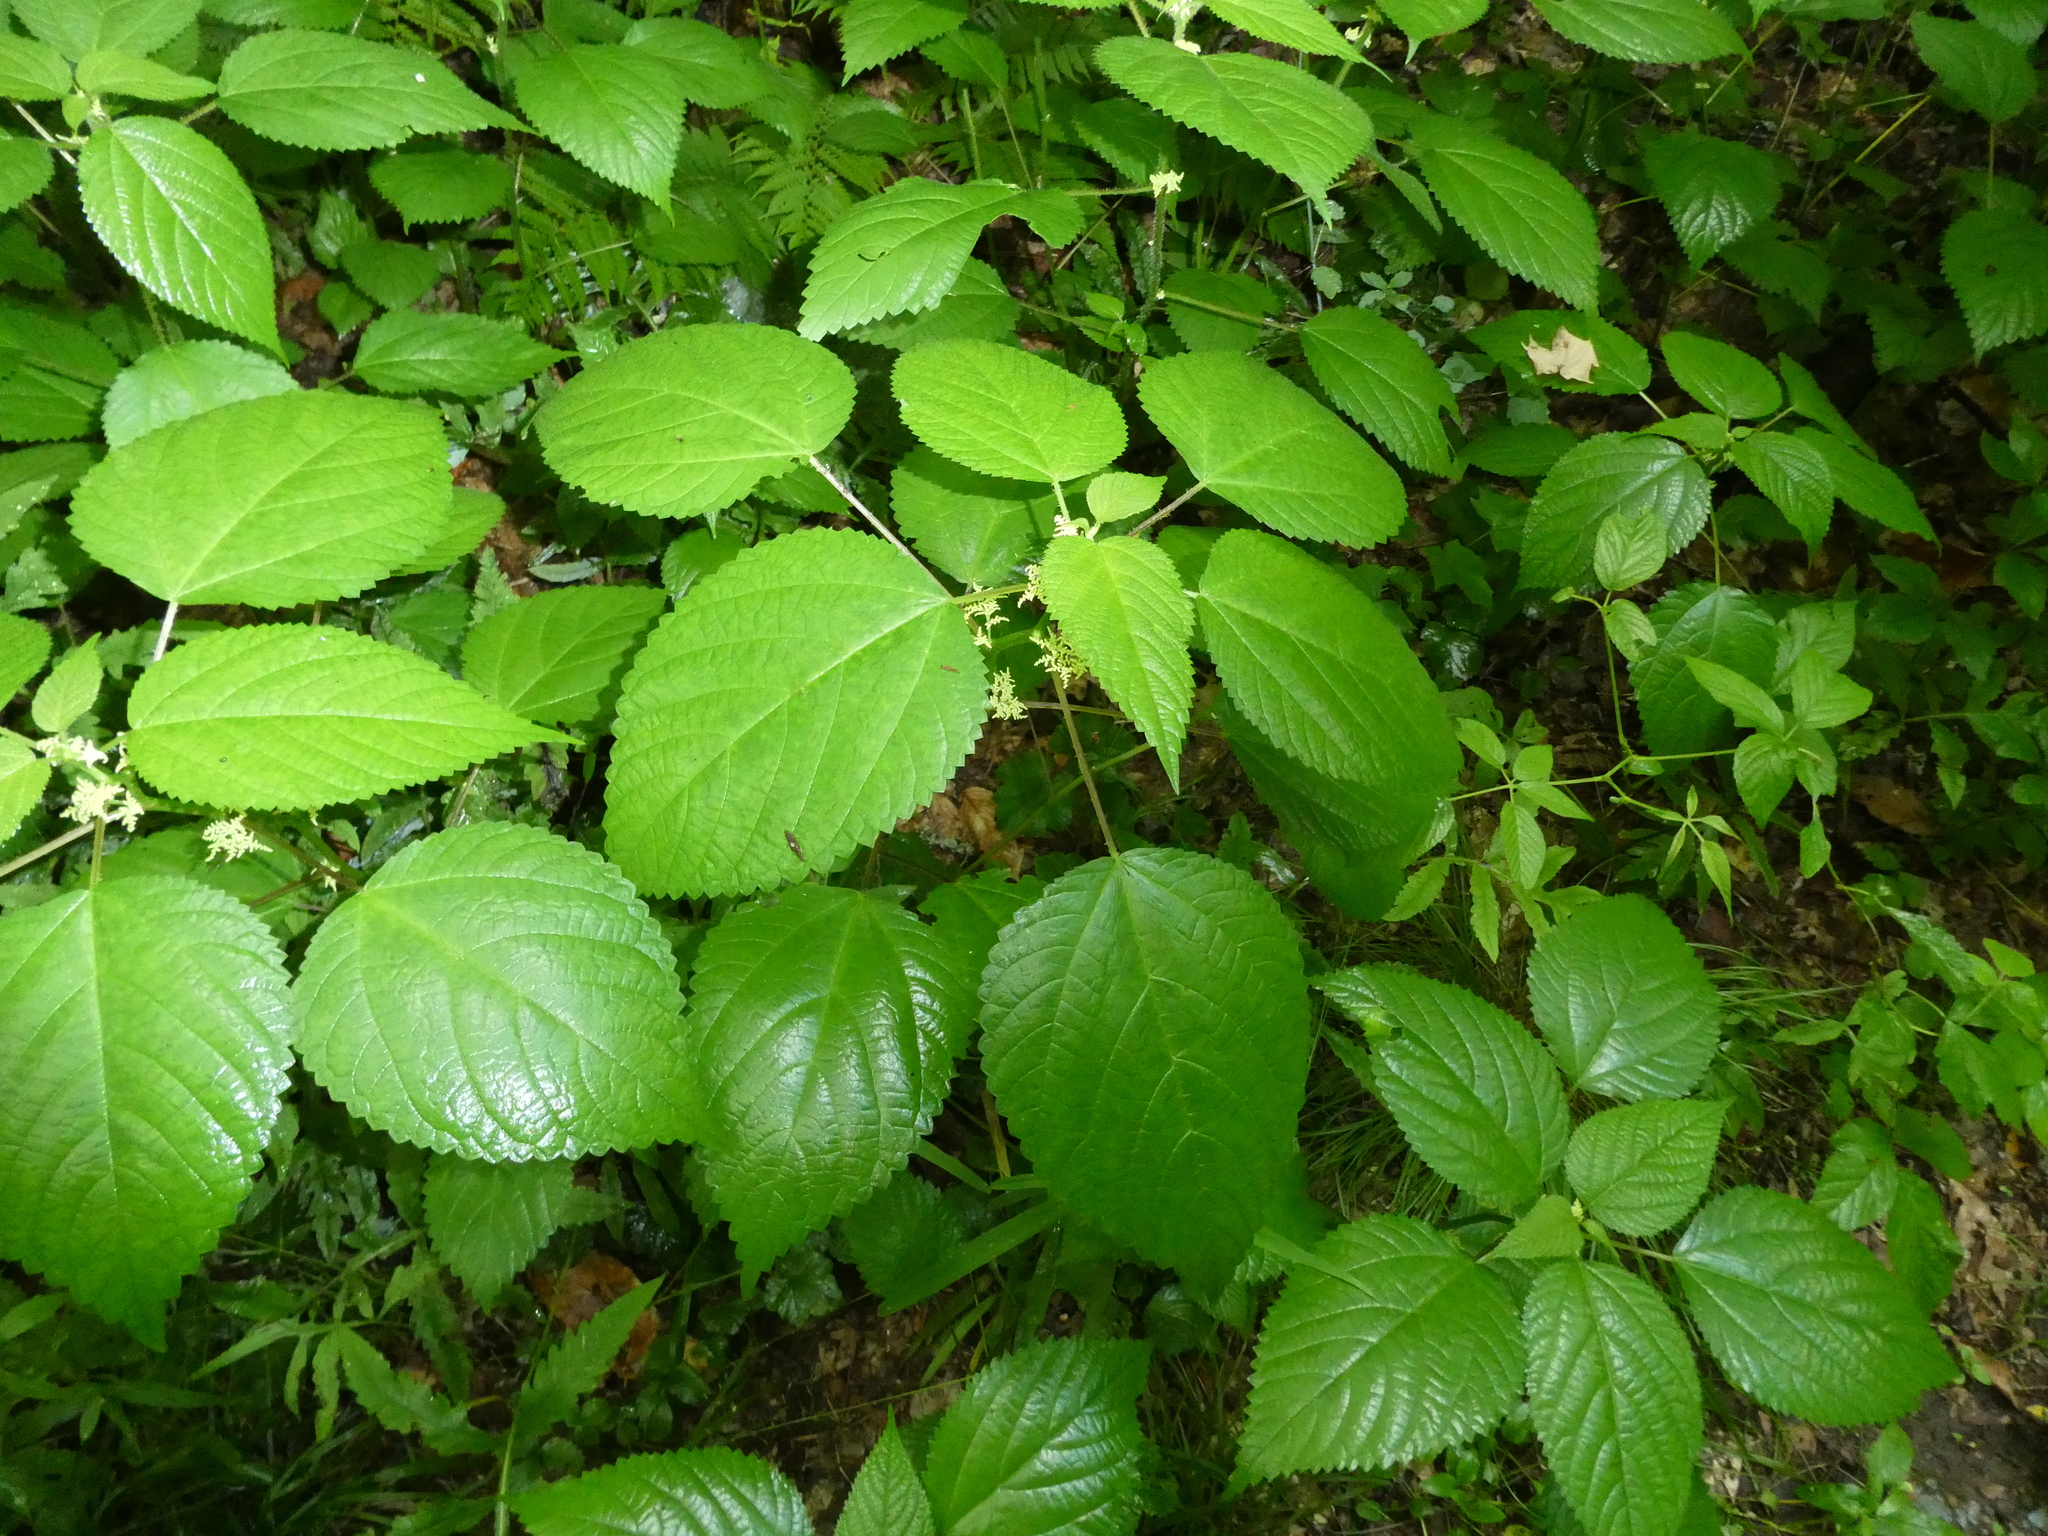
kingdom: Plantae
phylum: Tracheophyta
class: Magnoliopsida
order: Rosales
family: Urticaceae
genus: Laportea
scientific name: Laportea canadensis
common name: Canada nettle
